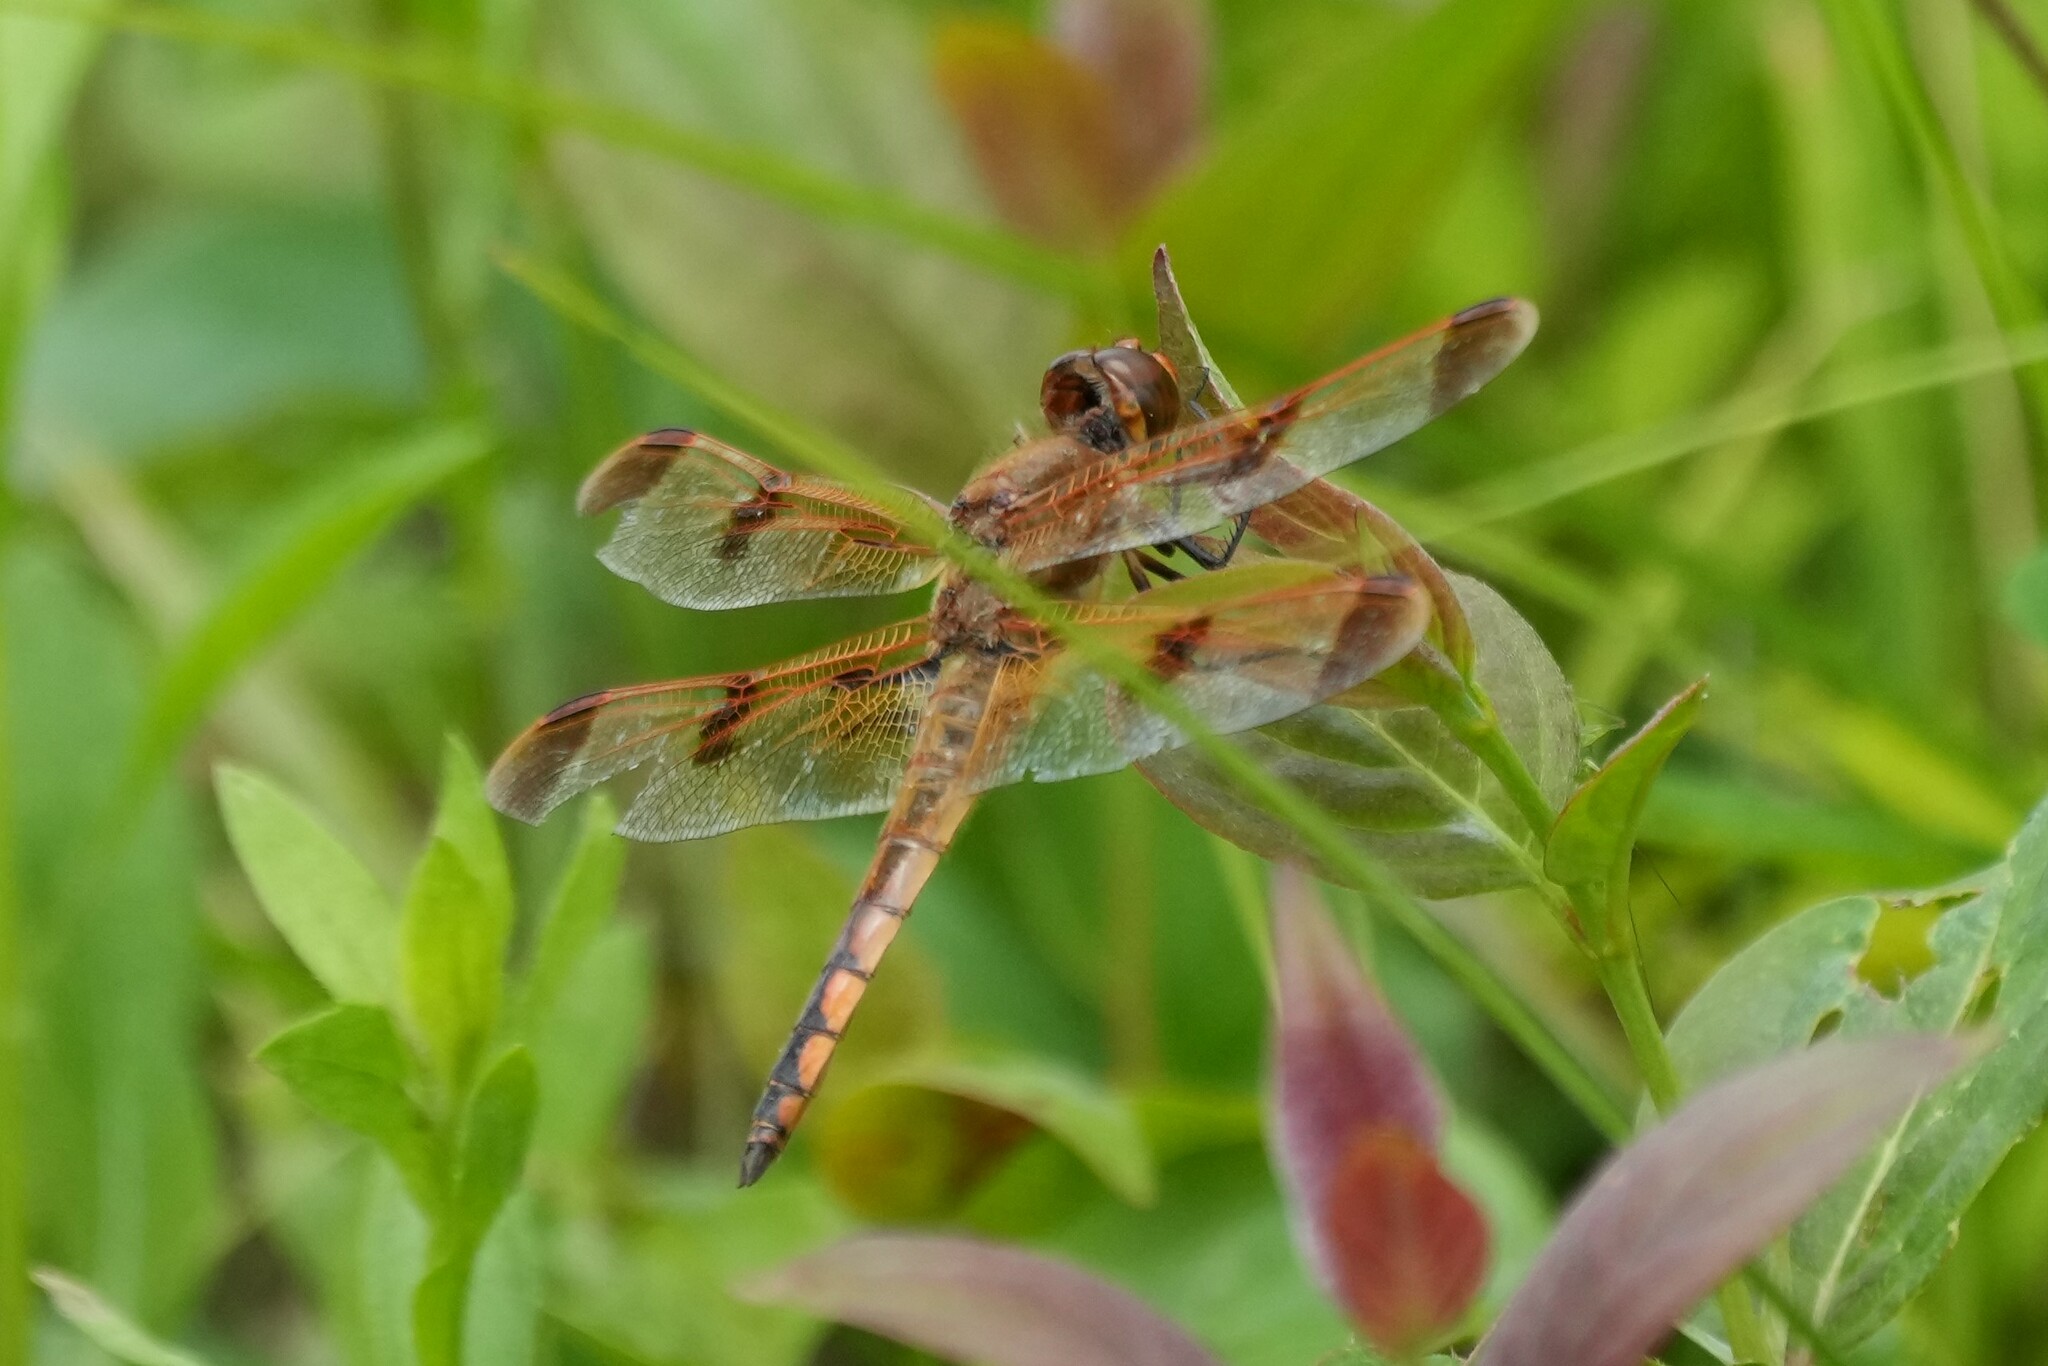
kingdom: Animalia
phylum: Arthropoda
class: Insecta
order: Odonata
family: Libellulidae
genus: Libellula
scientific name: Libellula semifasciata
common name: Painted skimmer
